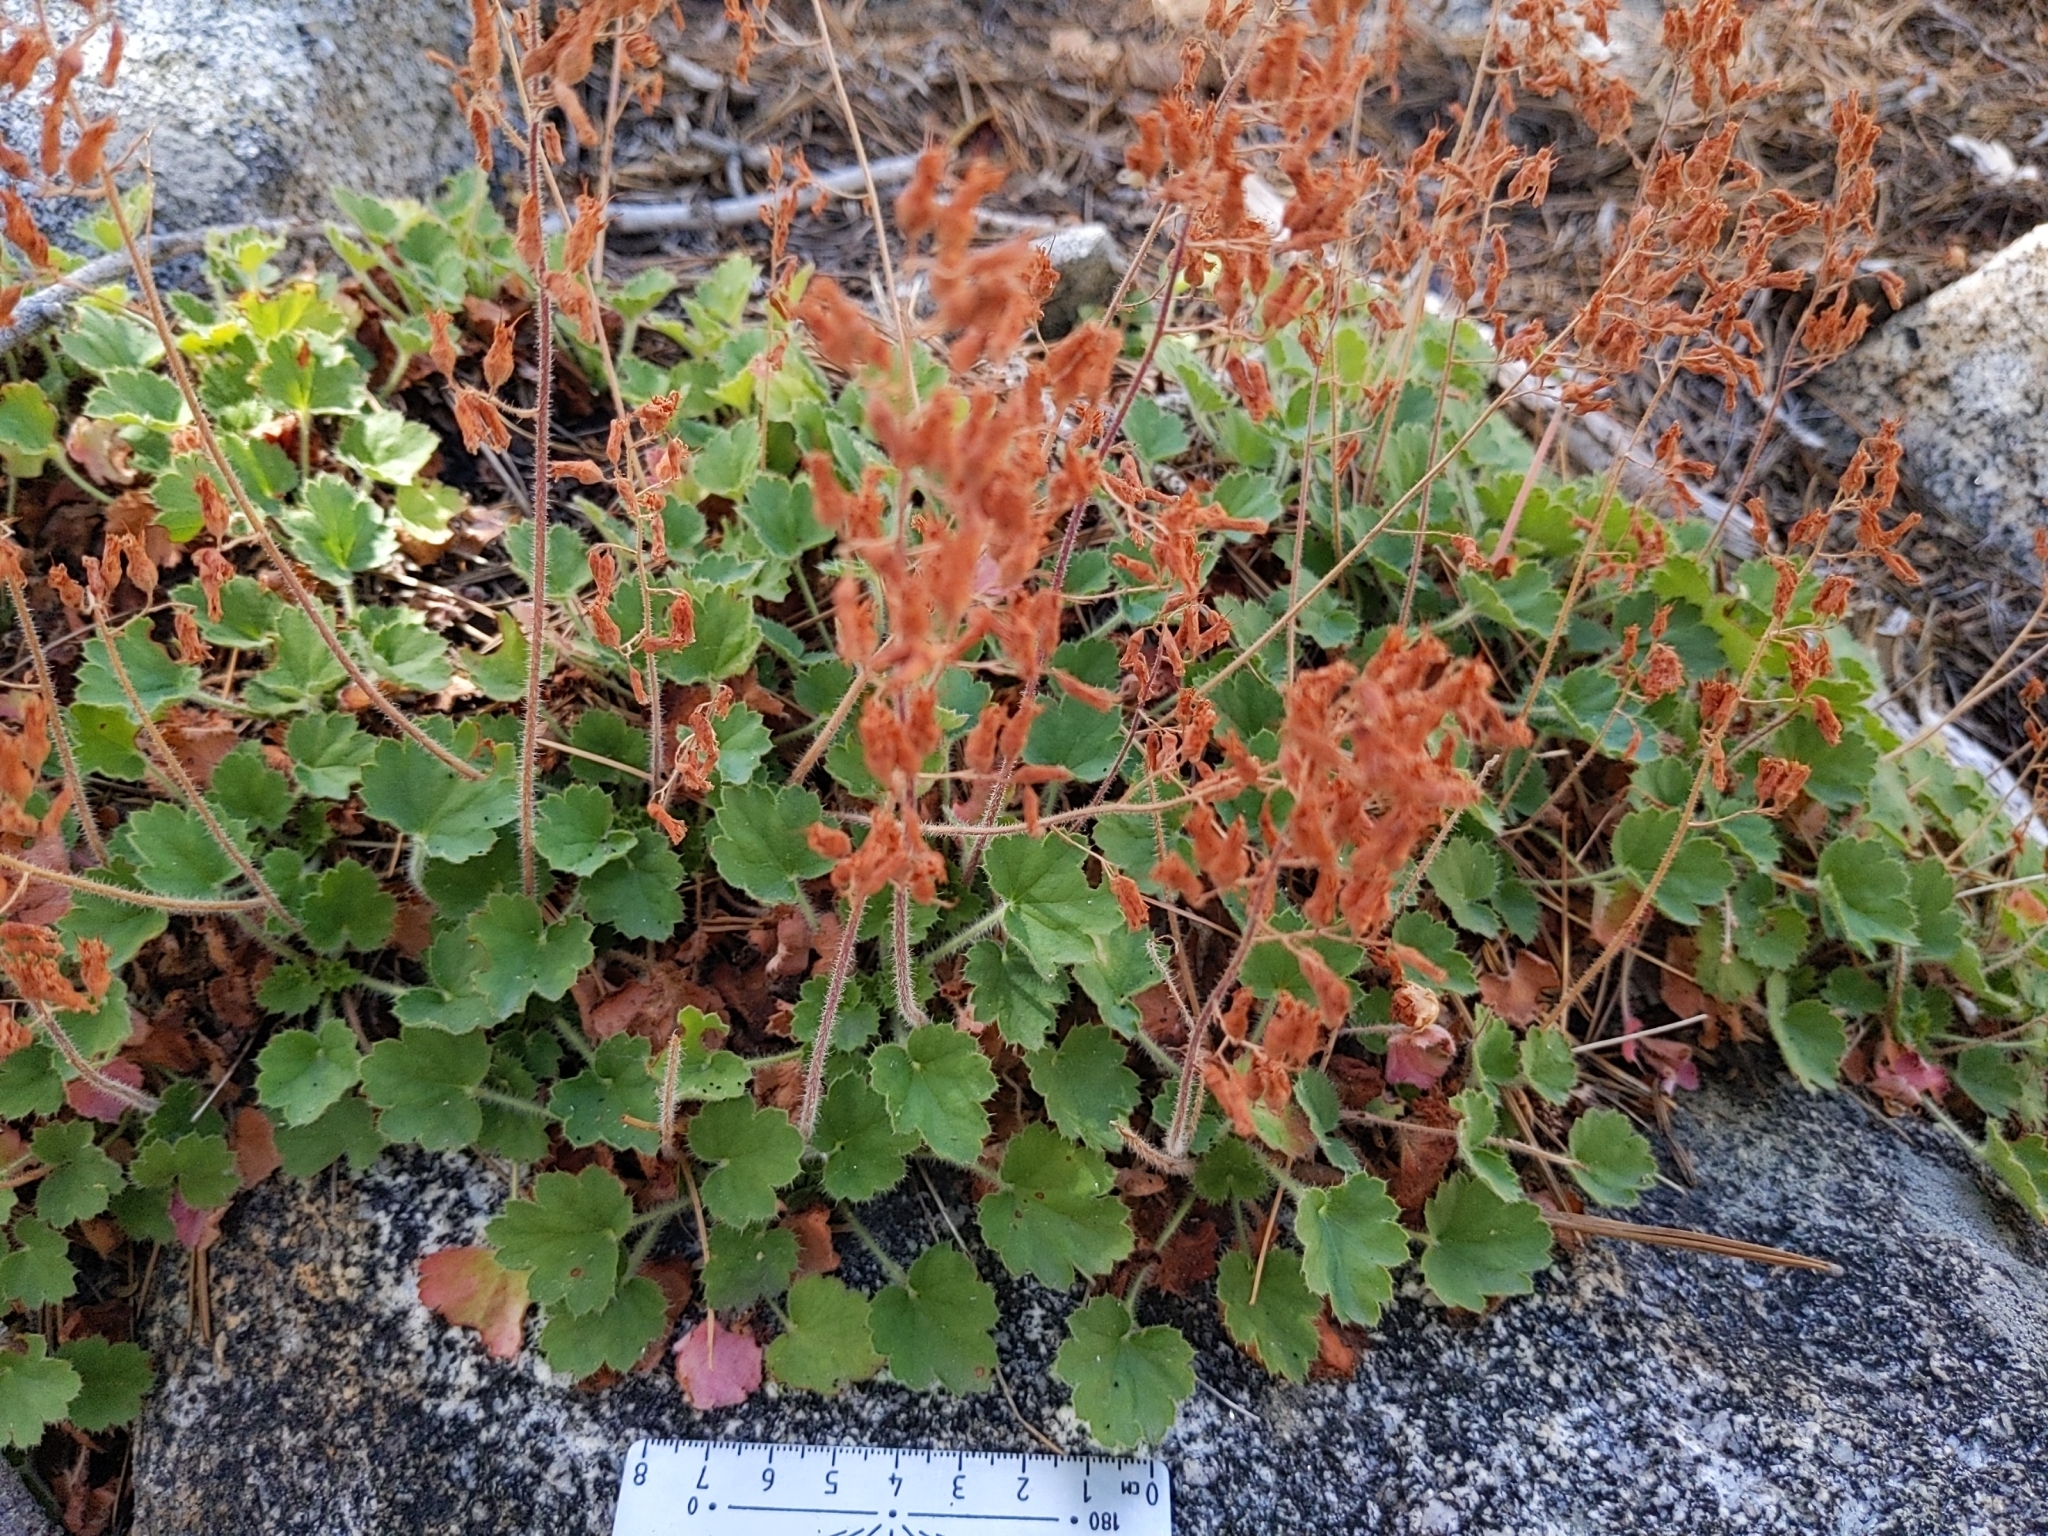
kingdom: Plantae
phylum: Tracheophyta
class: Magnoliopsida
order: Saxifragales
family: Saxifragaceae
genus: Heuchera
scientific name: Heuchera hirsutissima
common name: Shaggy-hair alumroot
